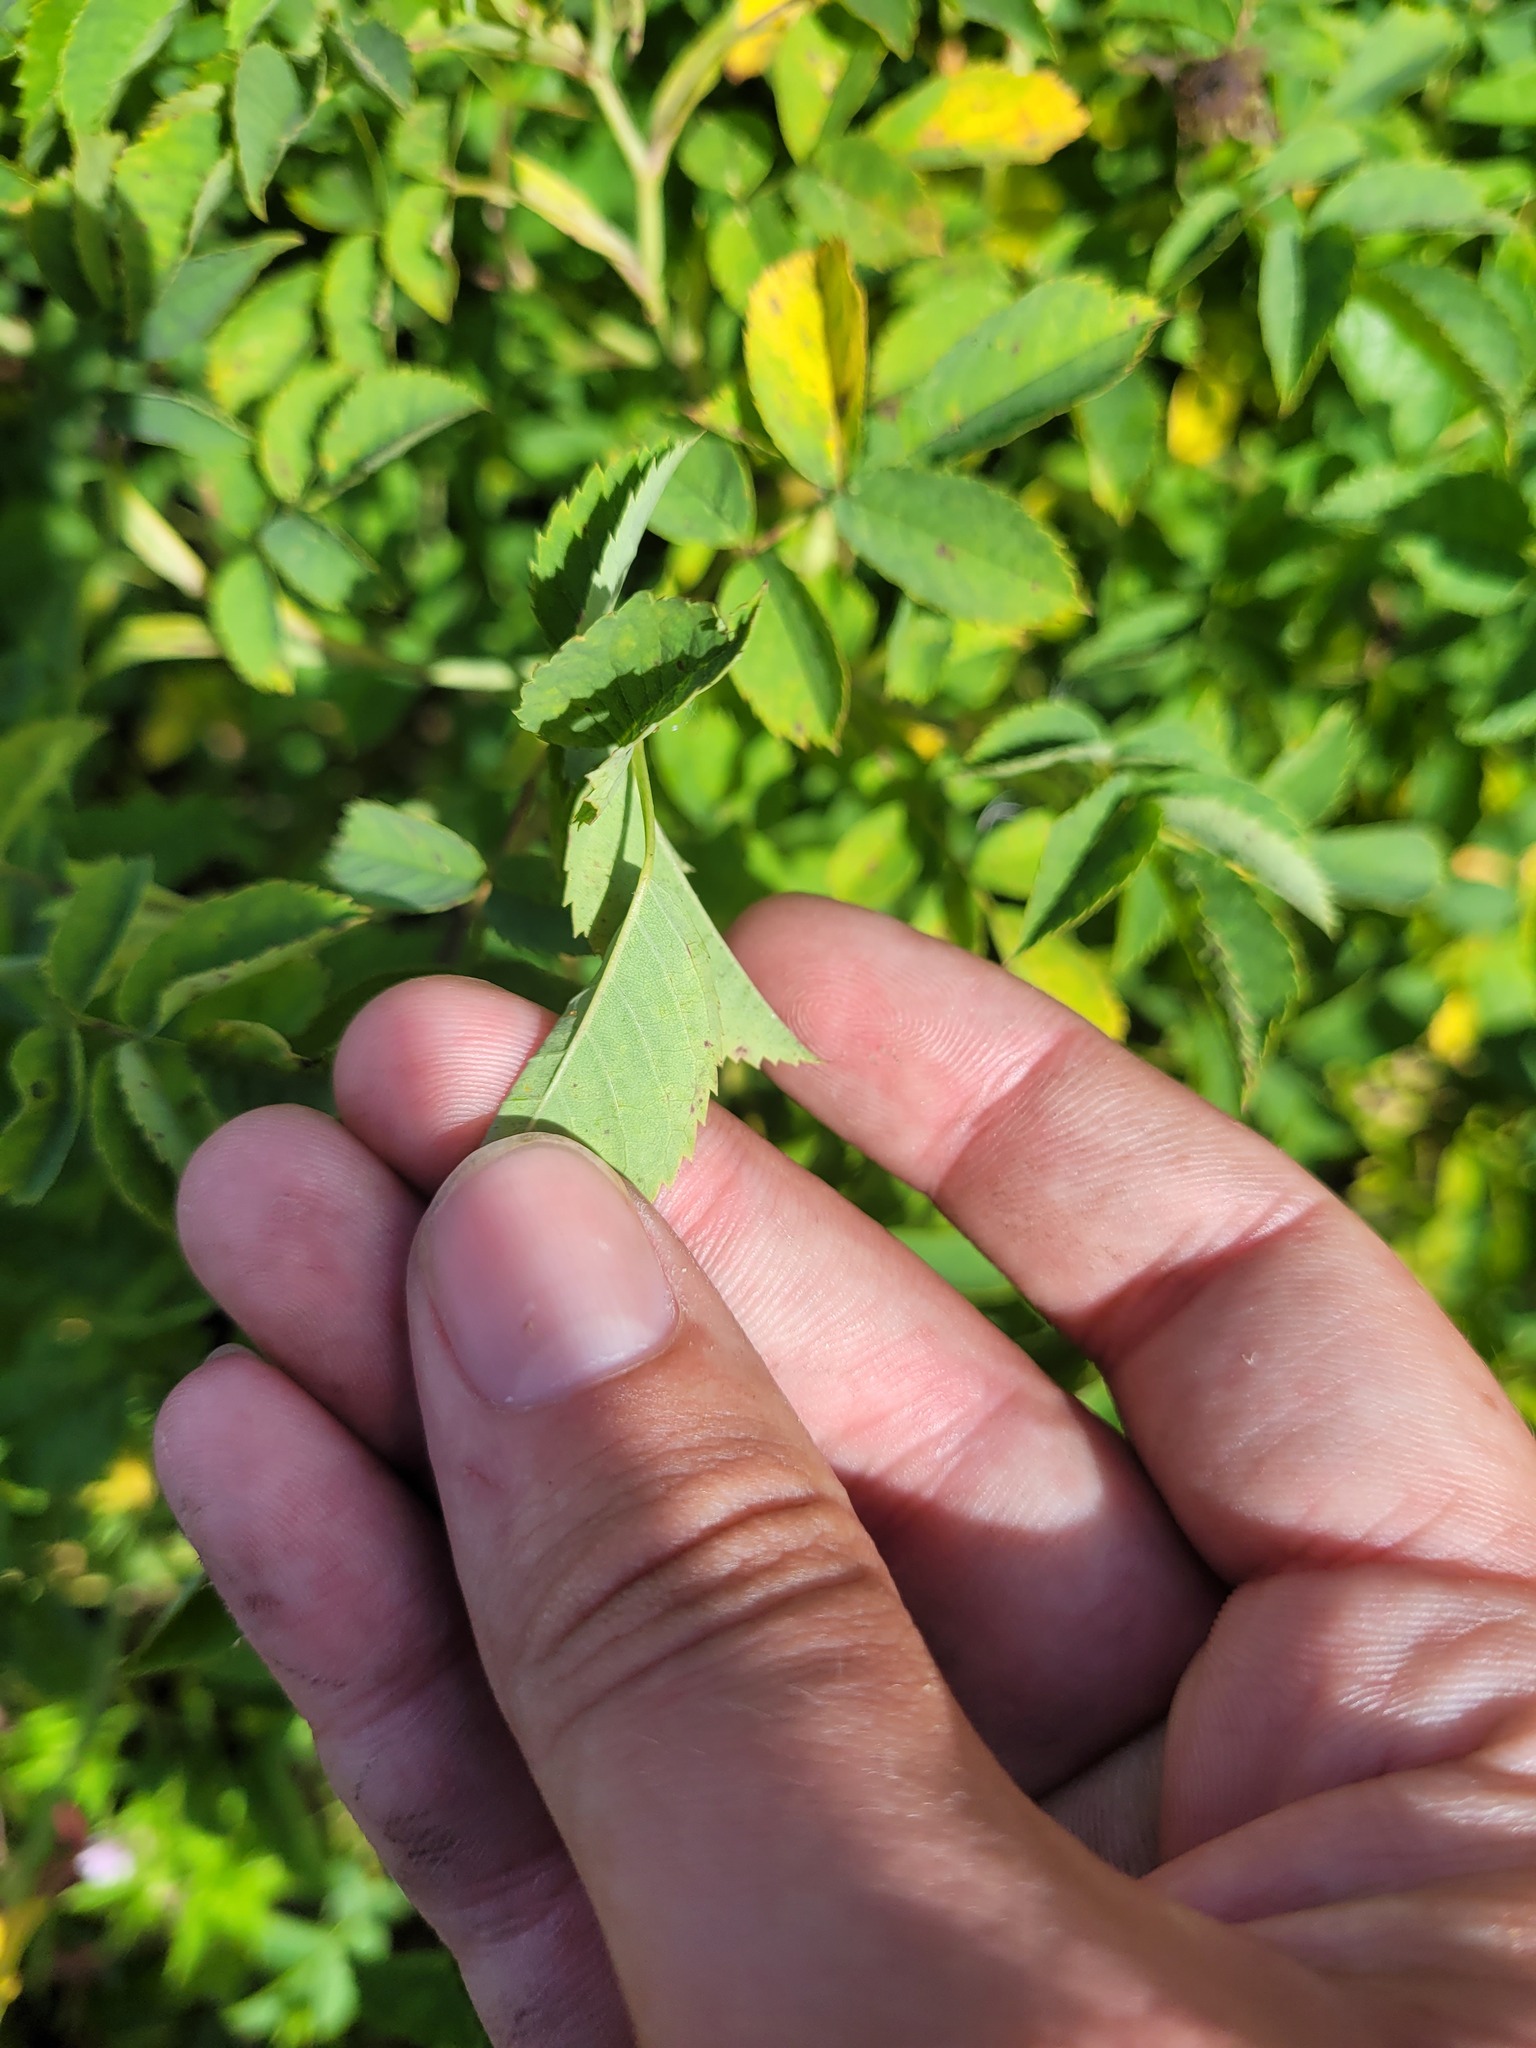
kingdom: Plantae
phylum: Tracheophyta
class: Magnoliopsida
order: Rosales
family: Rosaceae
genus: Rosa
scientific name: Rosa canina
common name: Dog rose
